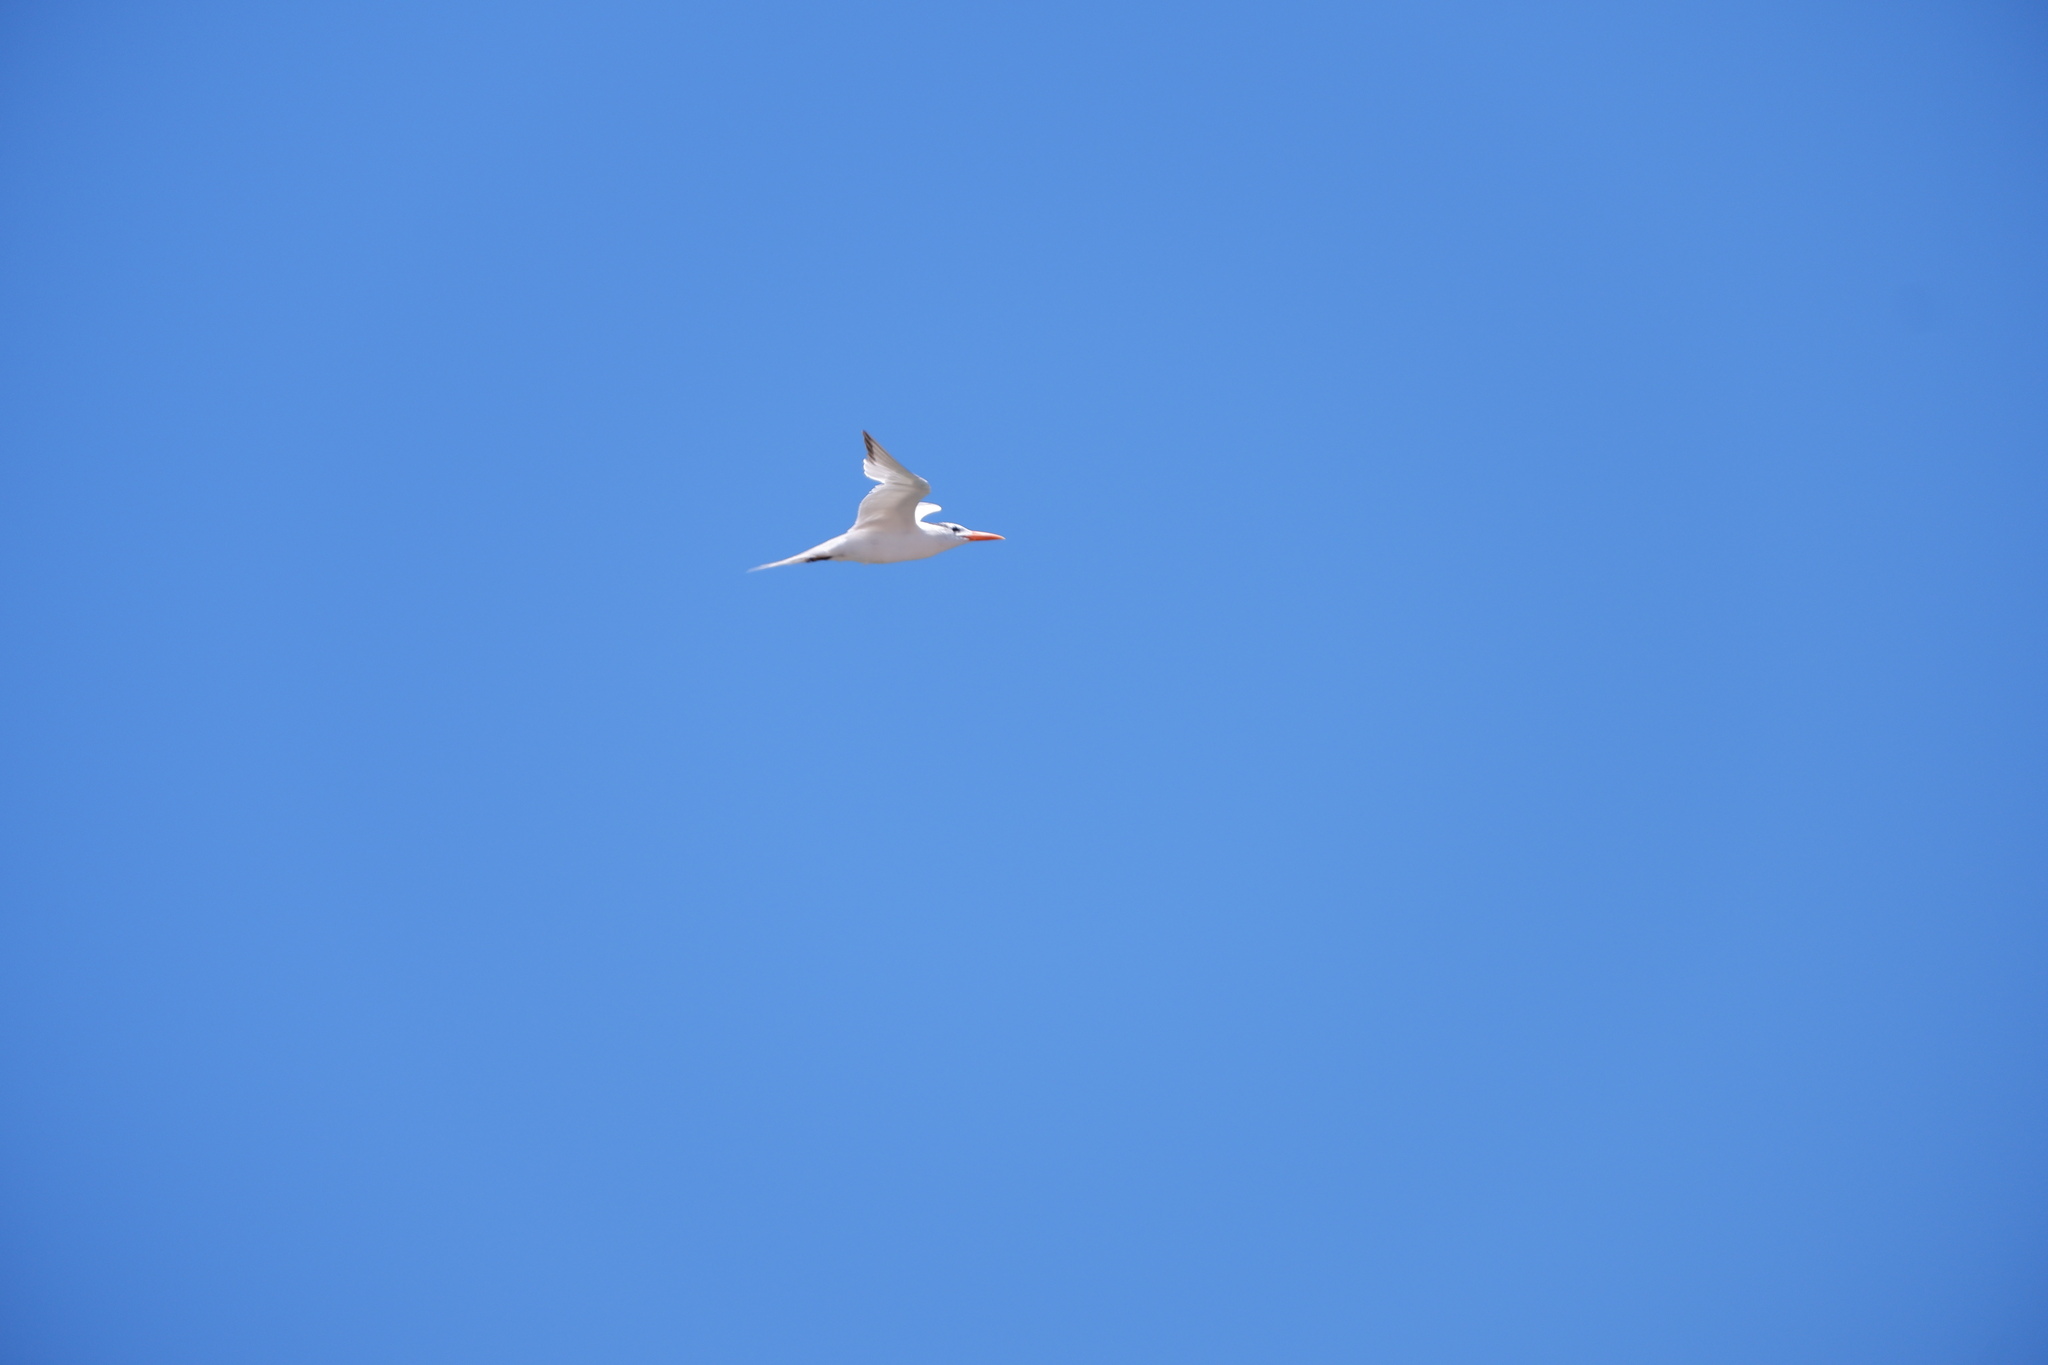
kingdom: Animalia
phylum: Chordata
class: Aves
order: Charadriiformes
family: Laridae
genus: Thalasseus
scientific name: Thalasseus maximus
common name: Royal tern
